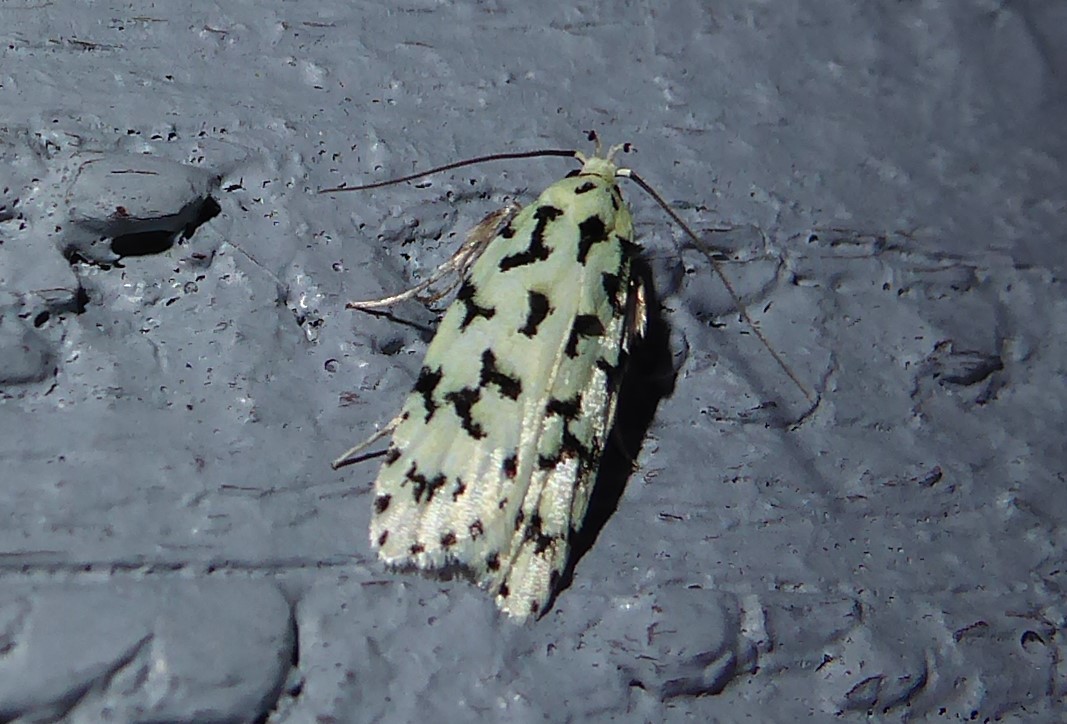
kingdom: Animalia
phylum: Arthropoda
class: Insecta
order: Lepidoptera
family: Oecophoridae
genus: Izatha
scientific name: Izatha huttoni
